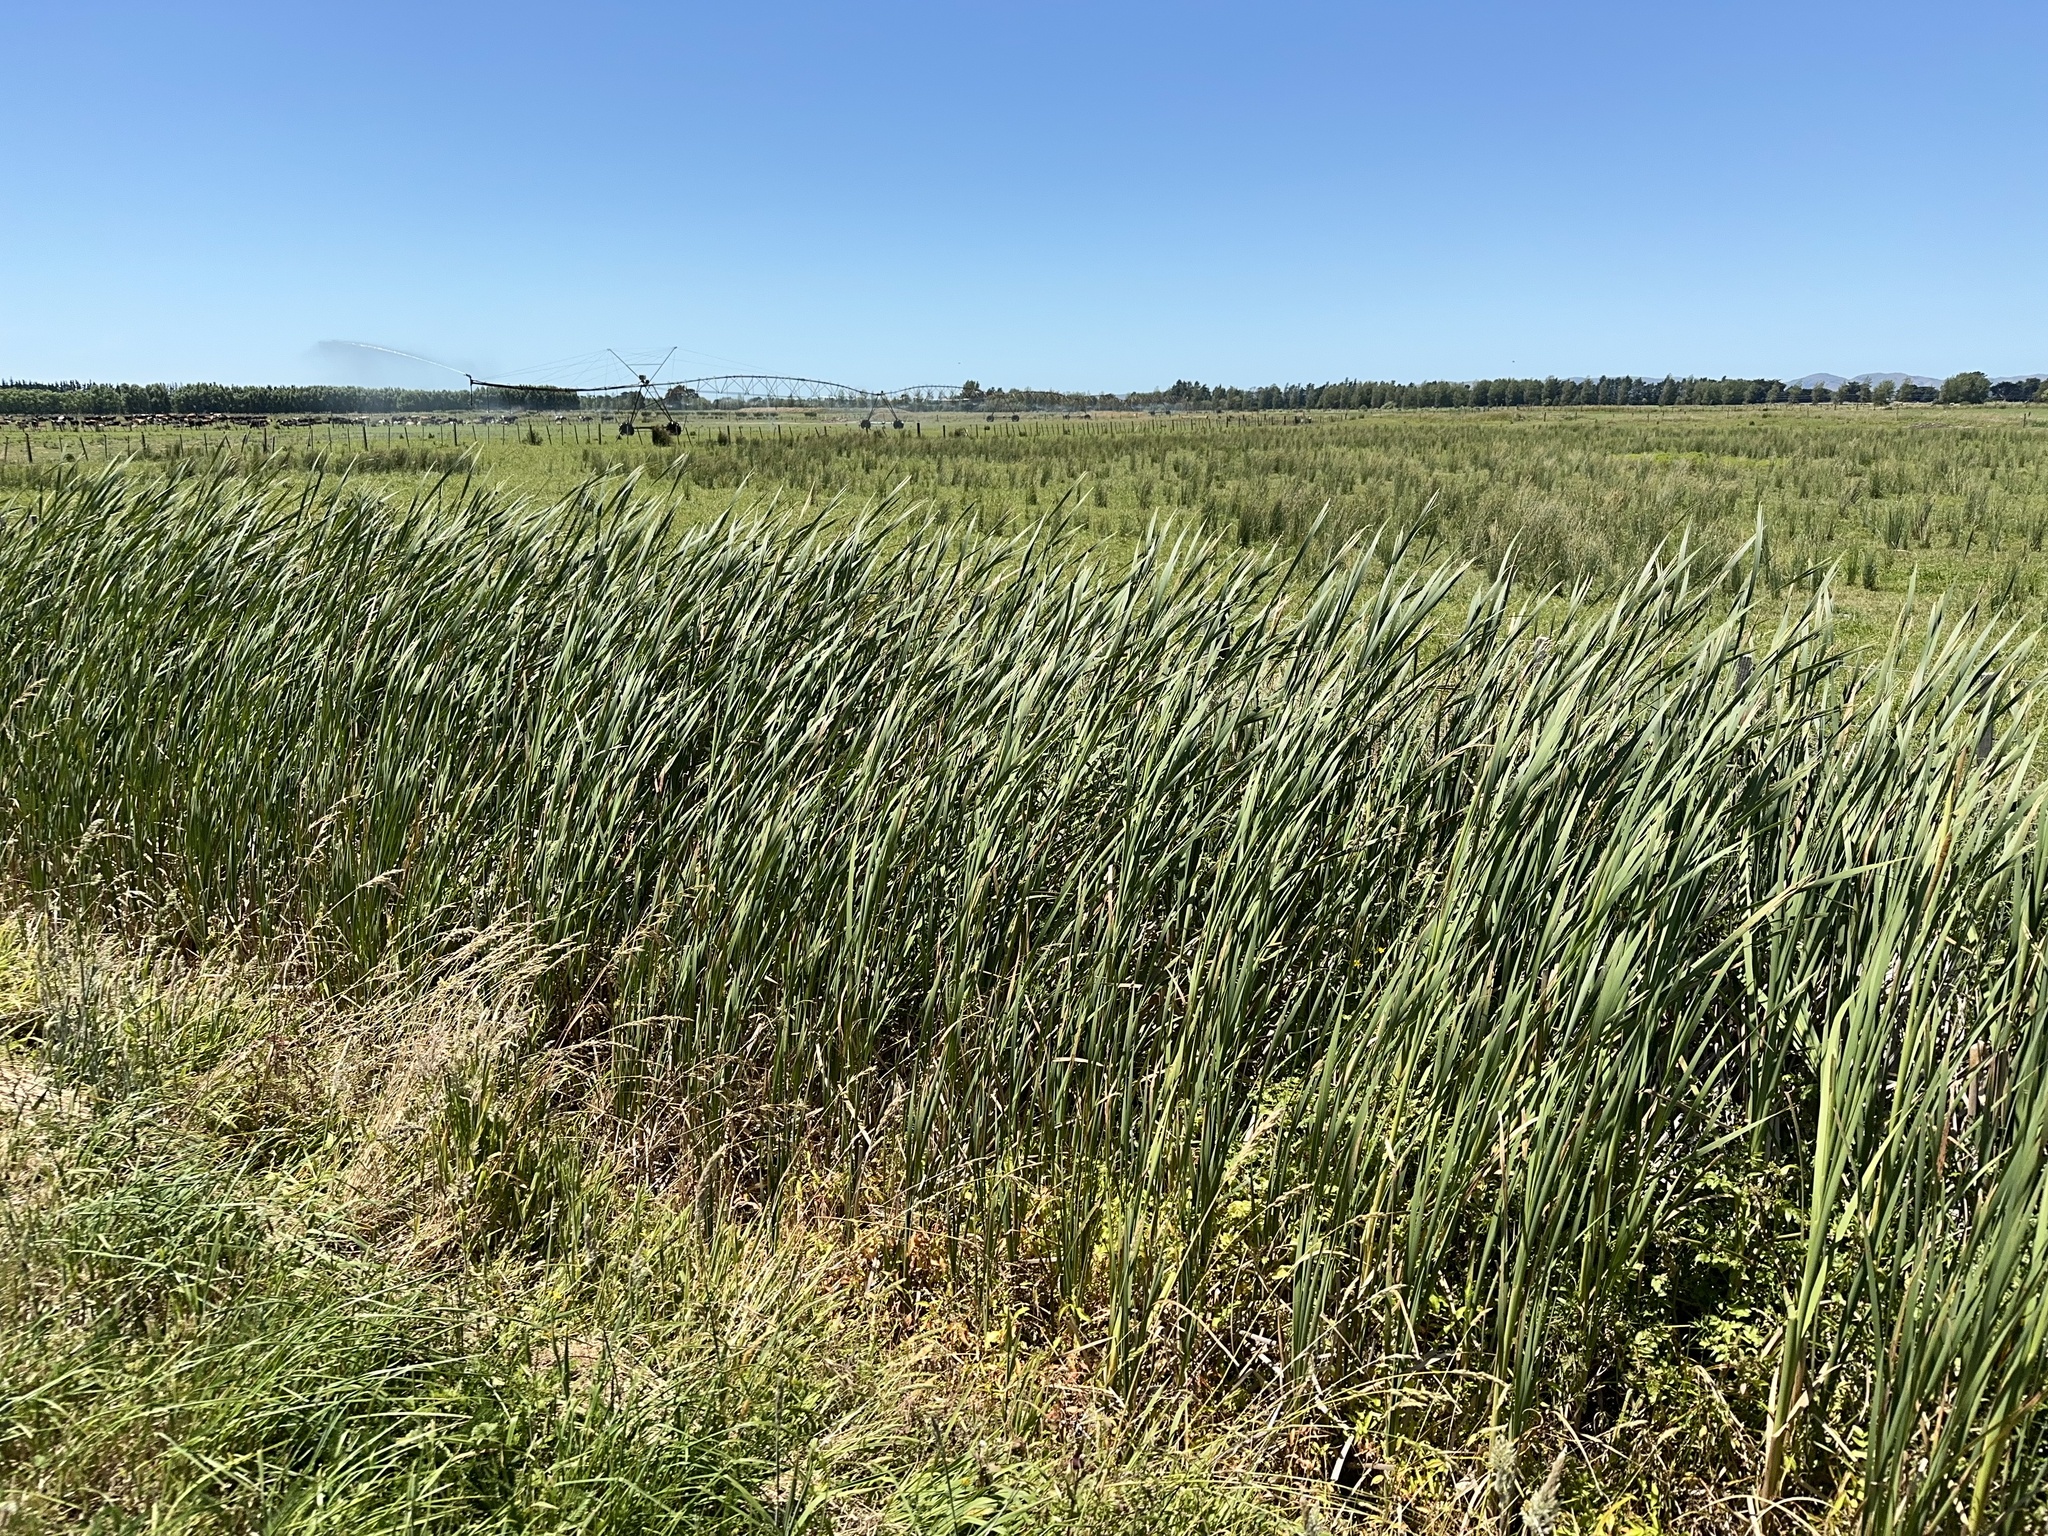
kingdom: Plantae
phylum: Tracheophyta
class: Liliopsida
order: Poales
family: Typhaceae
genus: Typha
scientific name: Typha orientalis
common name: Bullrush
